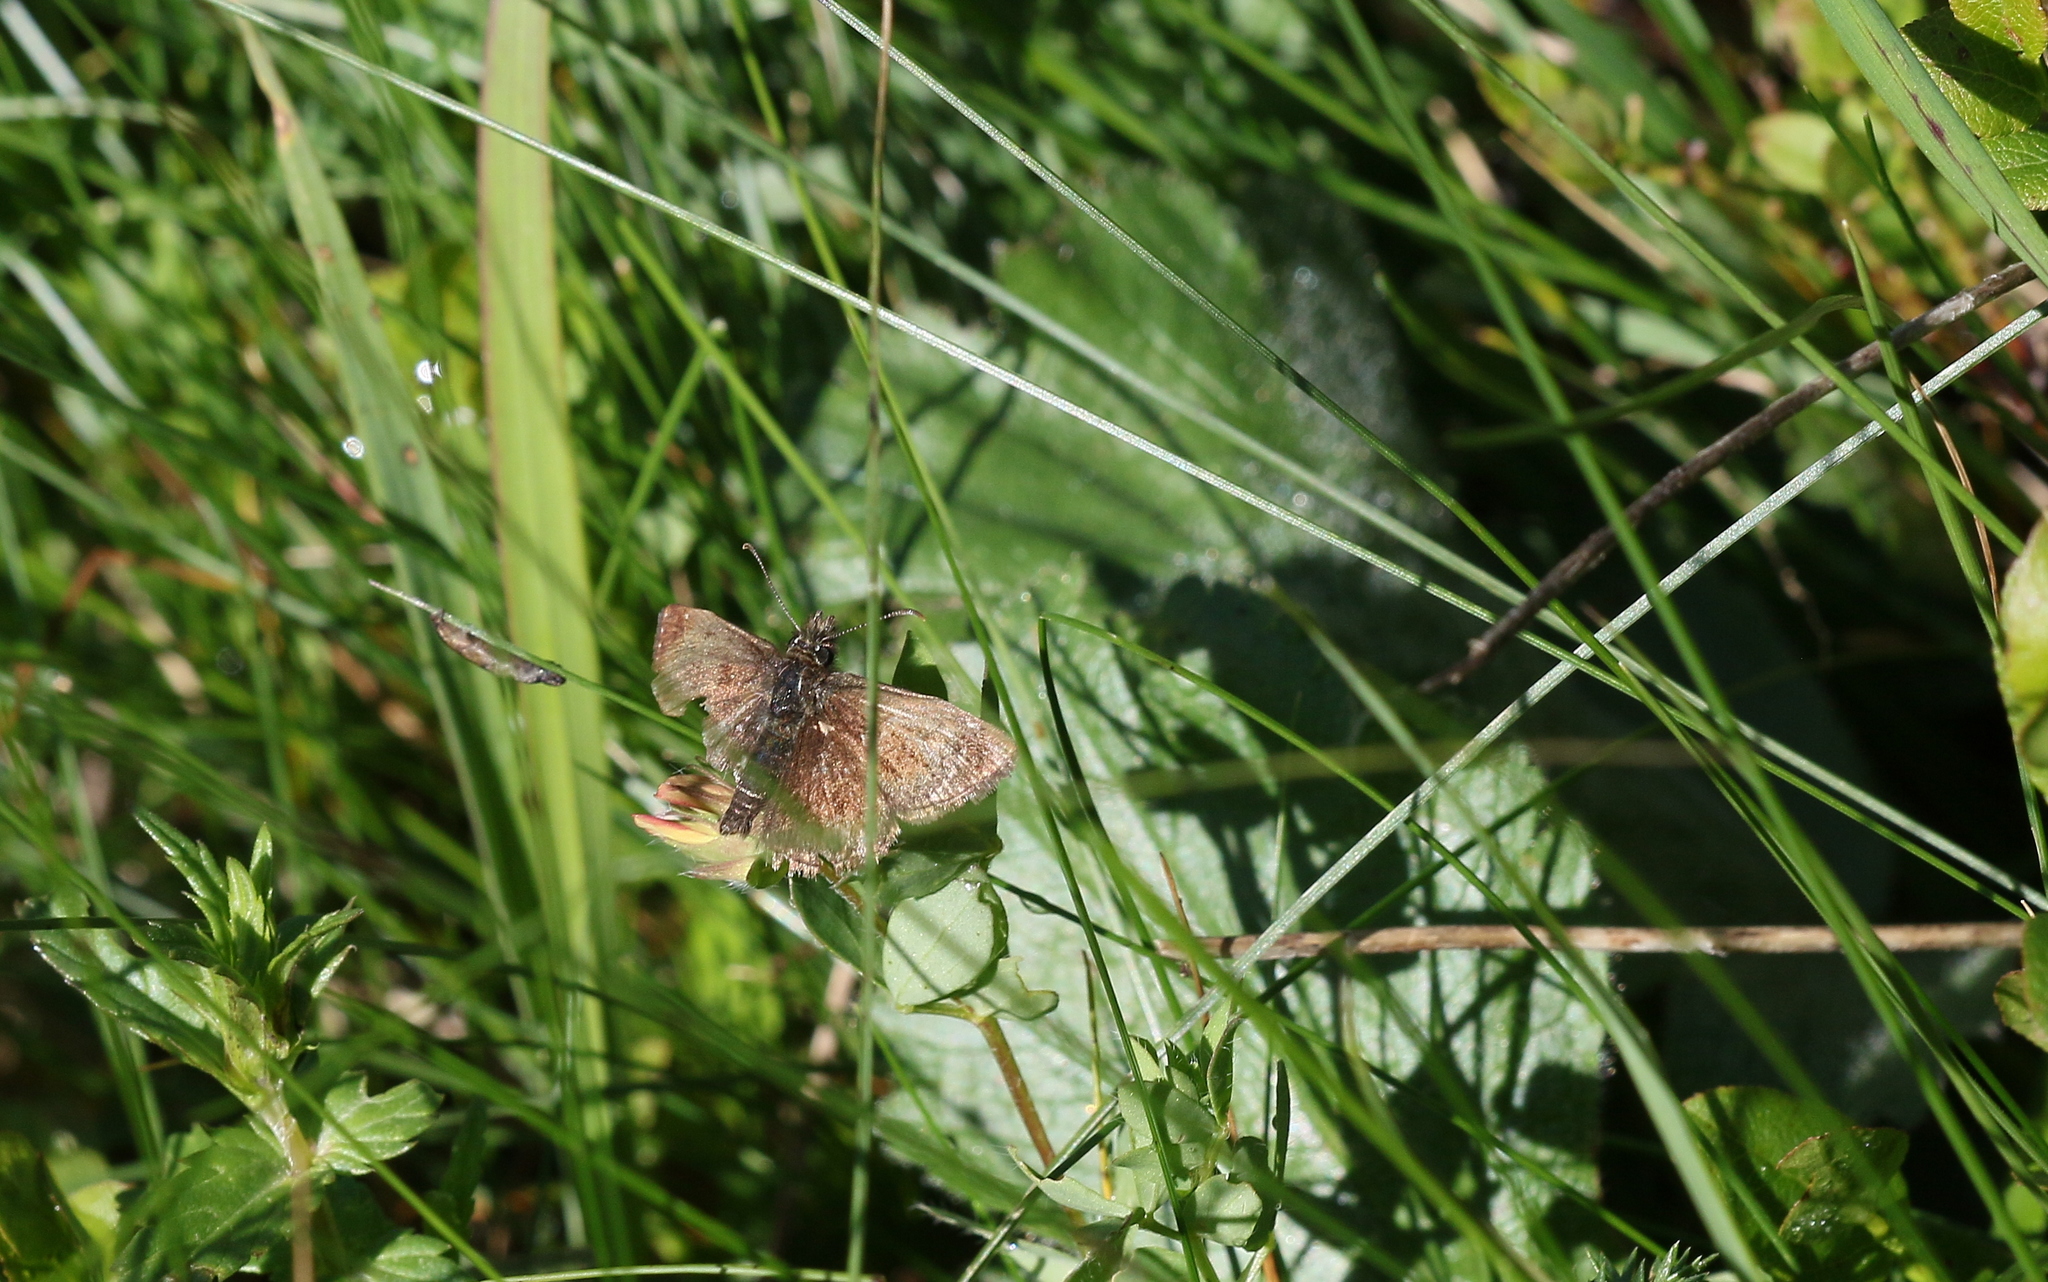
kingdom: Animalia
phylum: Arthropoda
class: Insecta
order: Lepidoptera
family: Hesperiidae
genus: Erynnis
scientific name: Erynnis tages
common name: Dingy skipper
